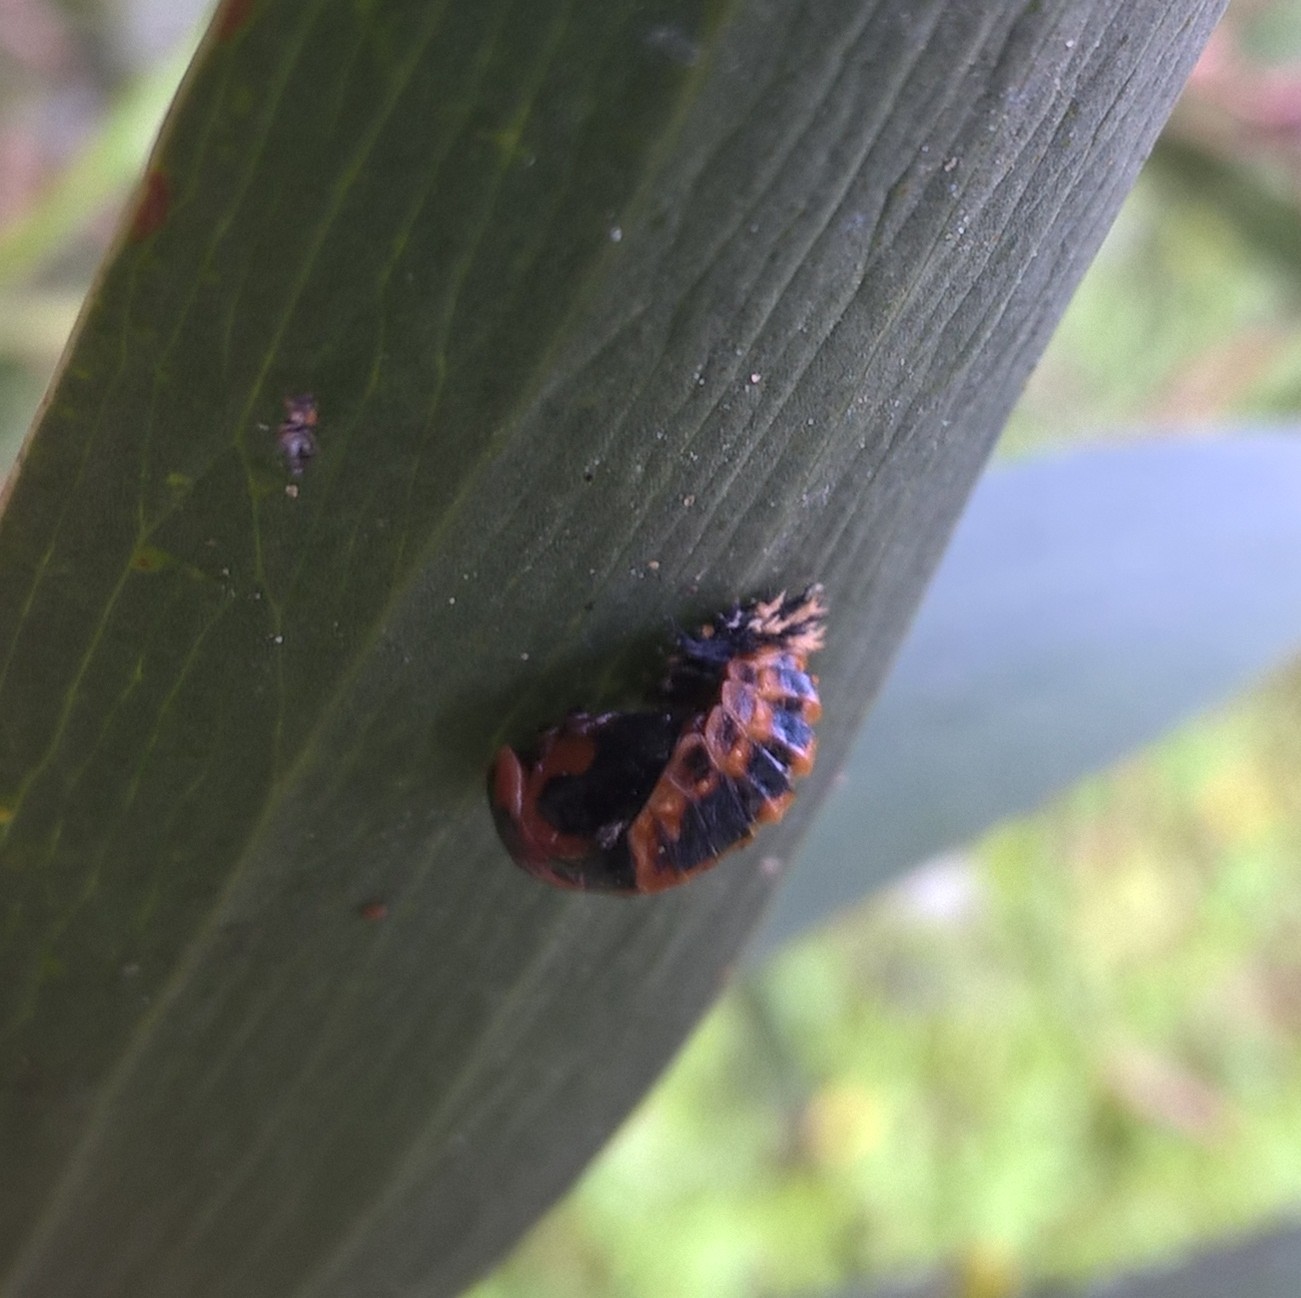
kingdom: Animalia
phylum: Arthropoda
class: Insecta
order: Coleoptera
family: Coccinellidae
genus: Harmonia
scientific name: Harmonia axyridis
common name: Harlequin ladybird
